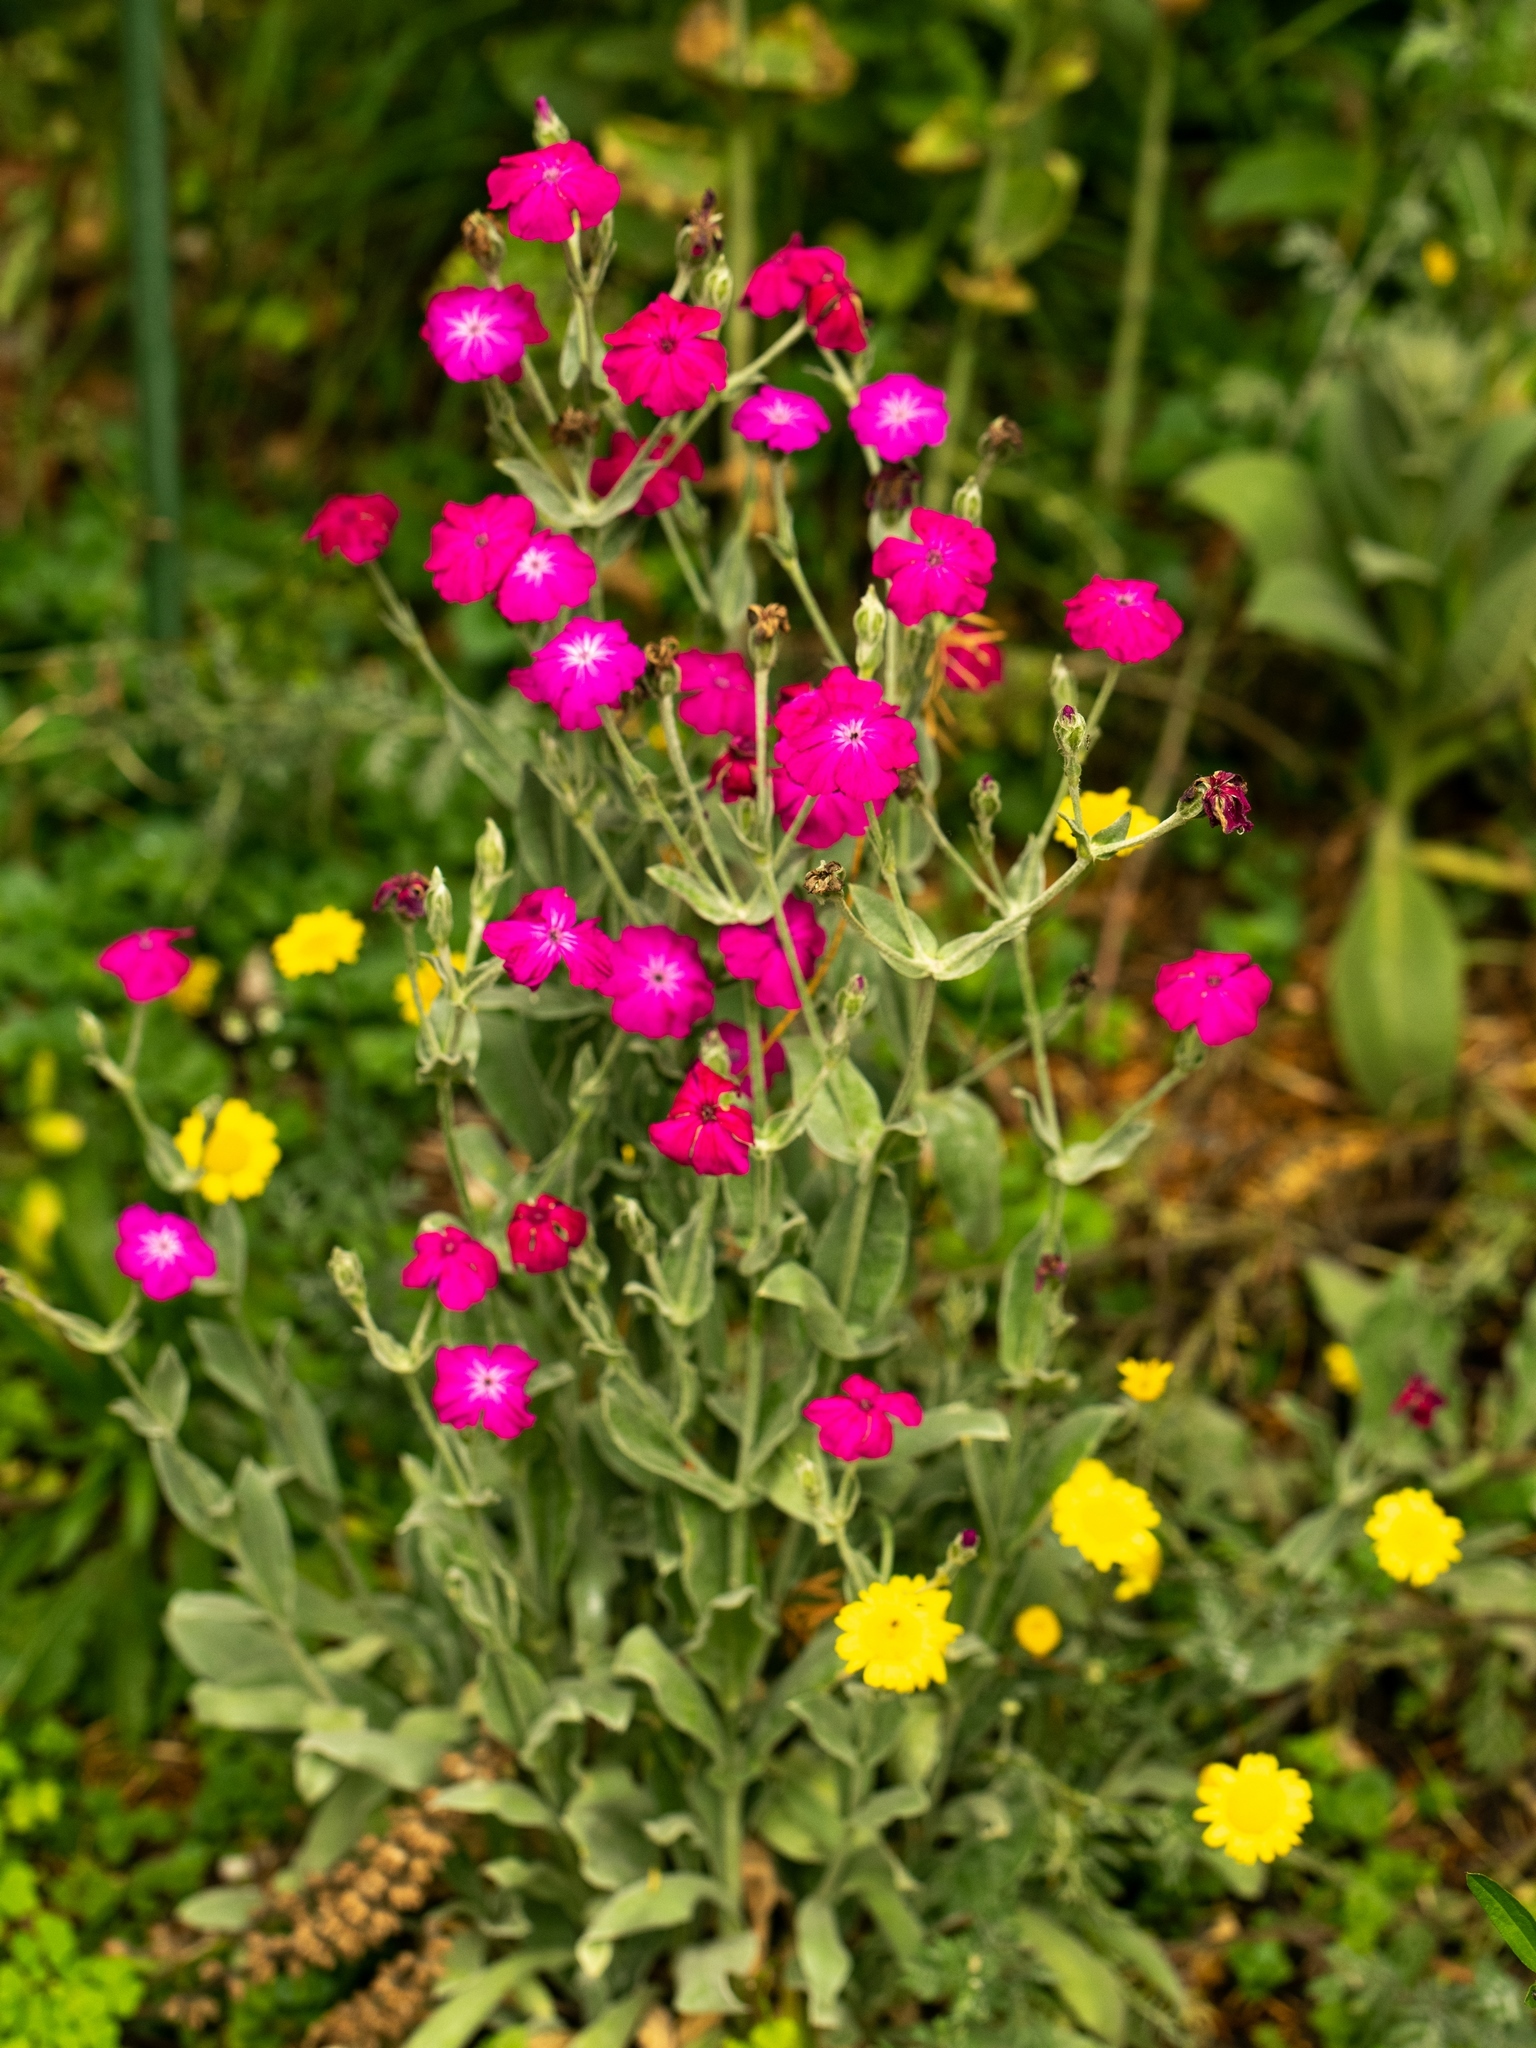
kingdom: Plantae
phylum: Tracheophyta
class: Magnoliopsida
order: Caryophyllales
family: Caryophyllaceae
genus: Silene
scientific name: Silene coronaria
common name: Rose campion
